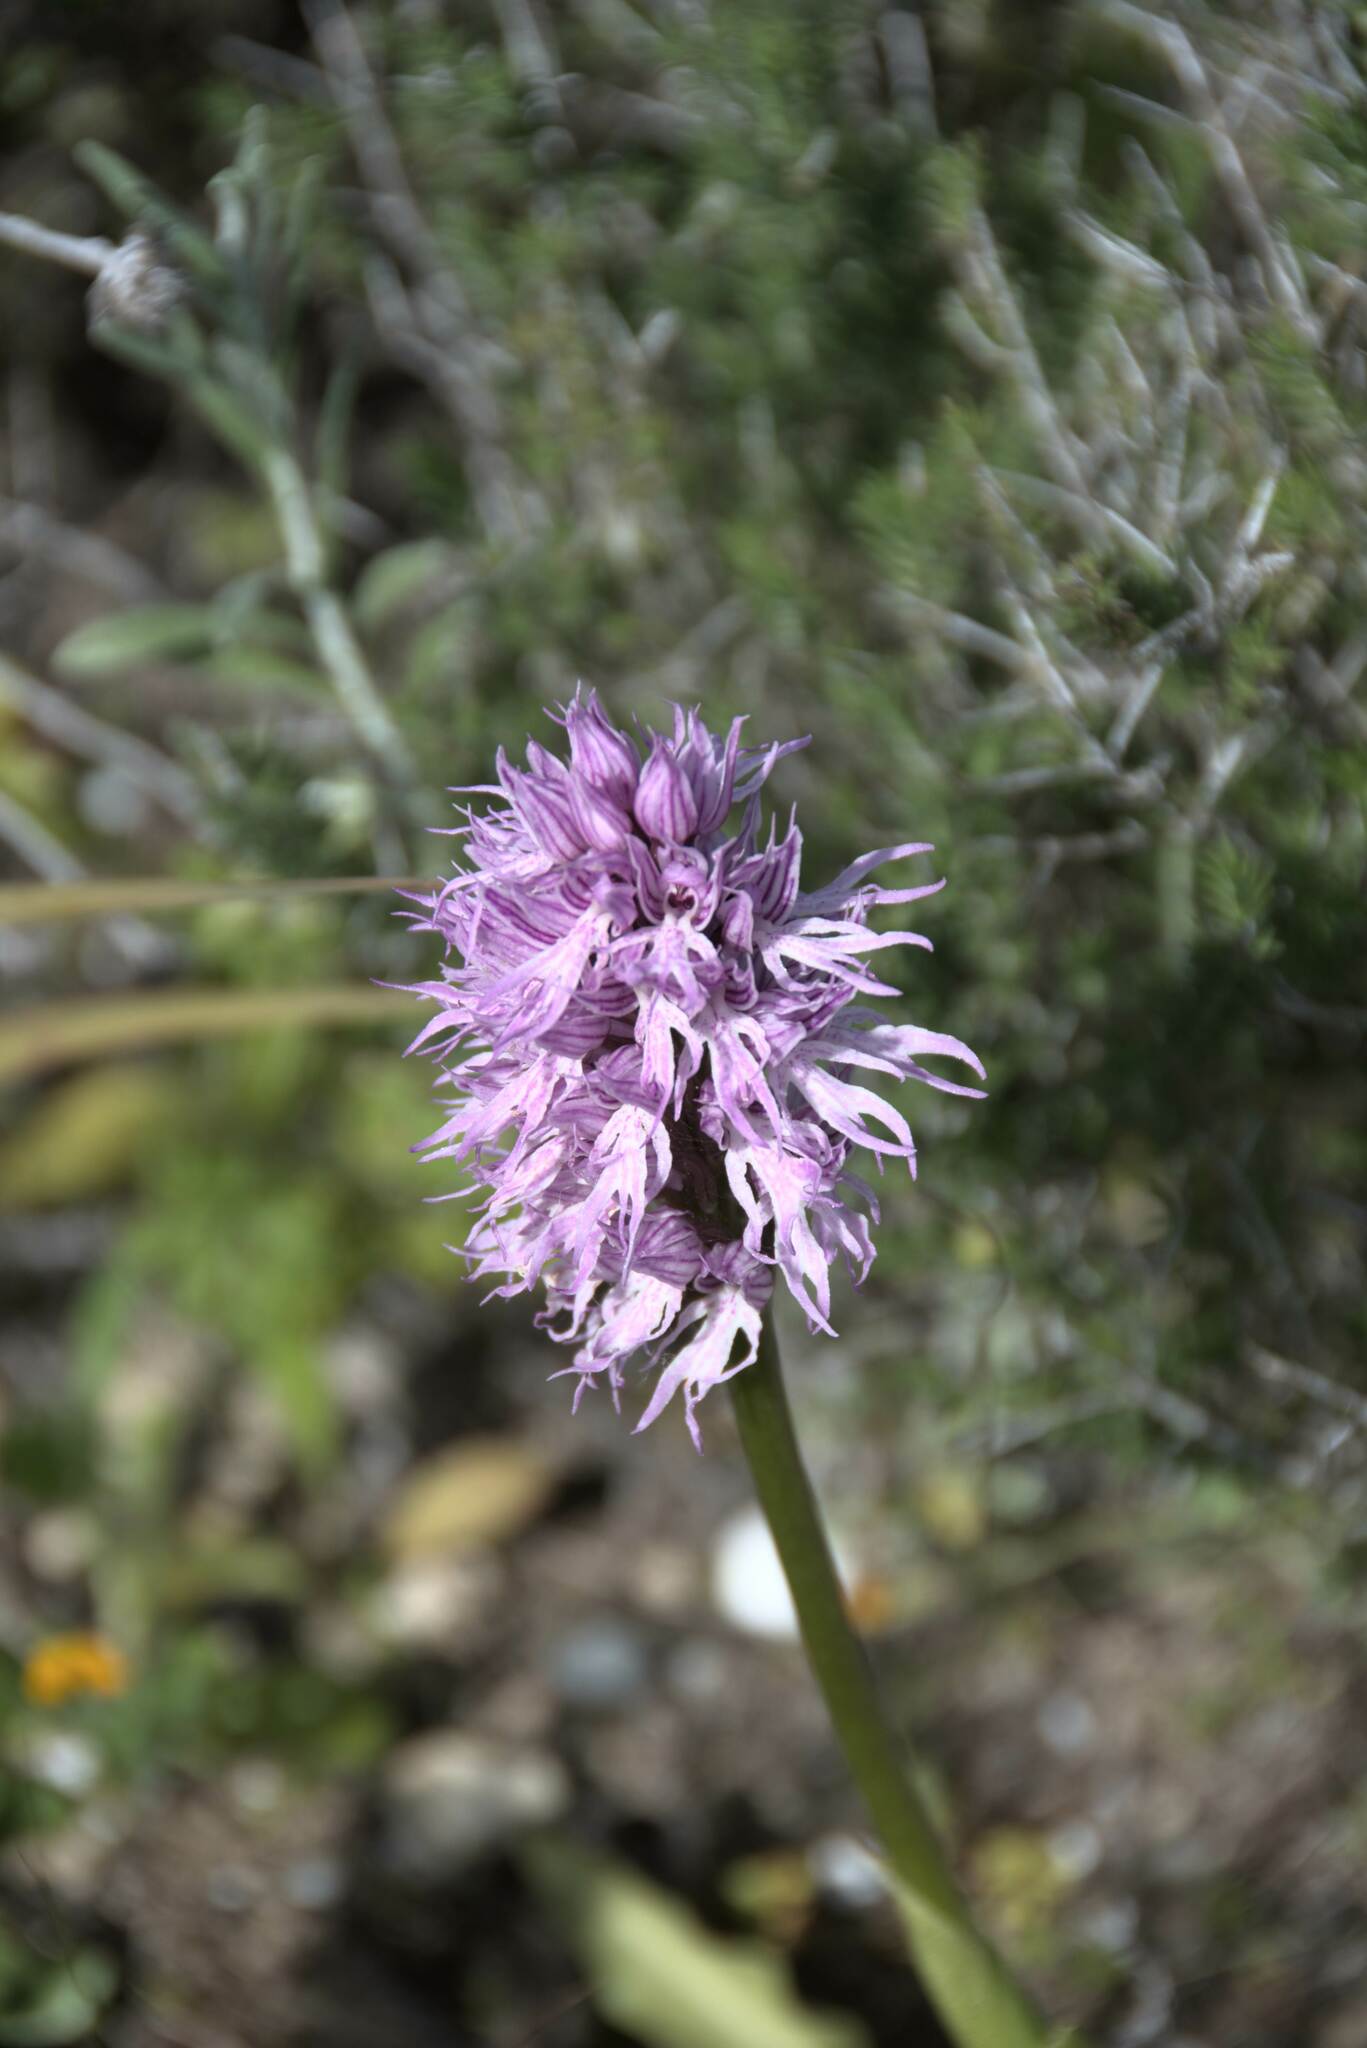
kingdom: Plantae
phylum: Tracheophyta
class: Liliopsida
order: Asparagales
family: Orchidaceae
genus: Orchis
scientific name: Orchis italica
